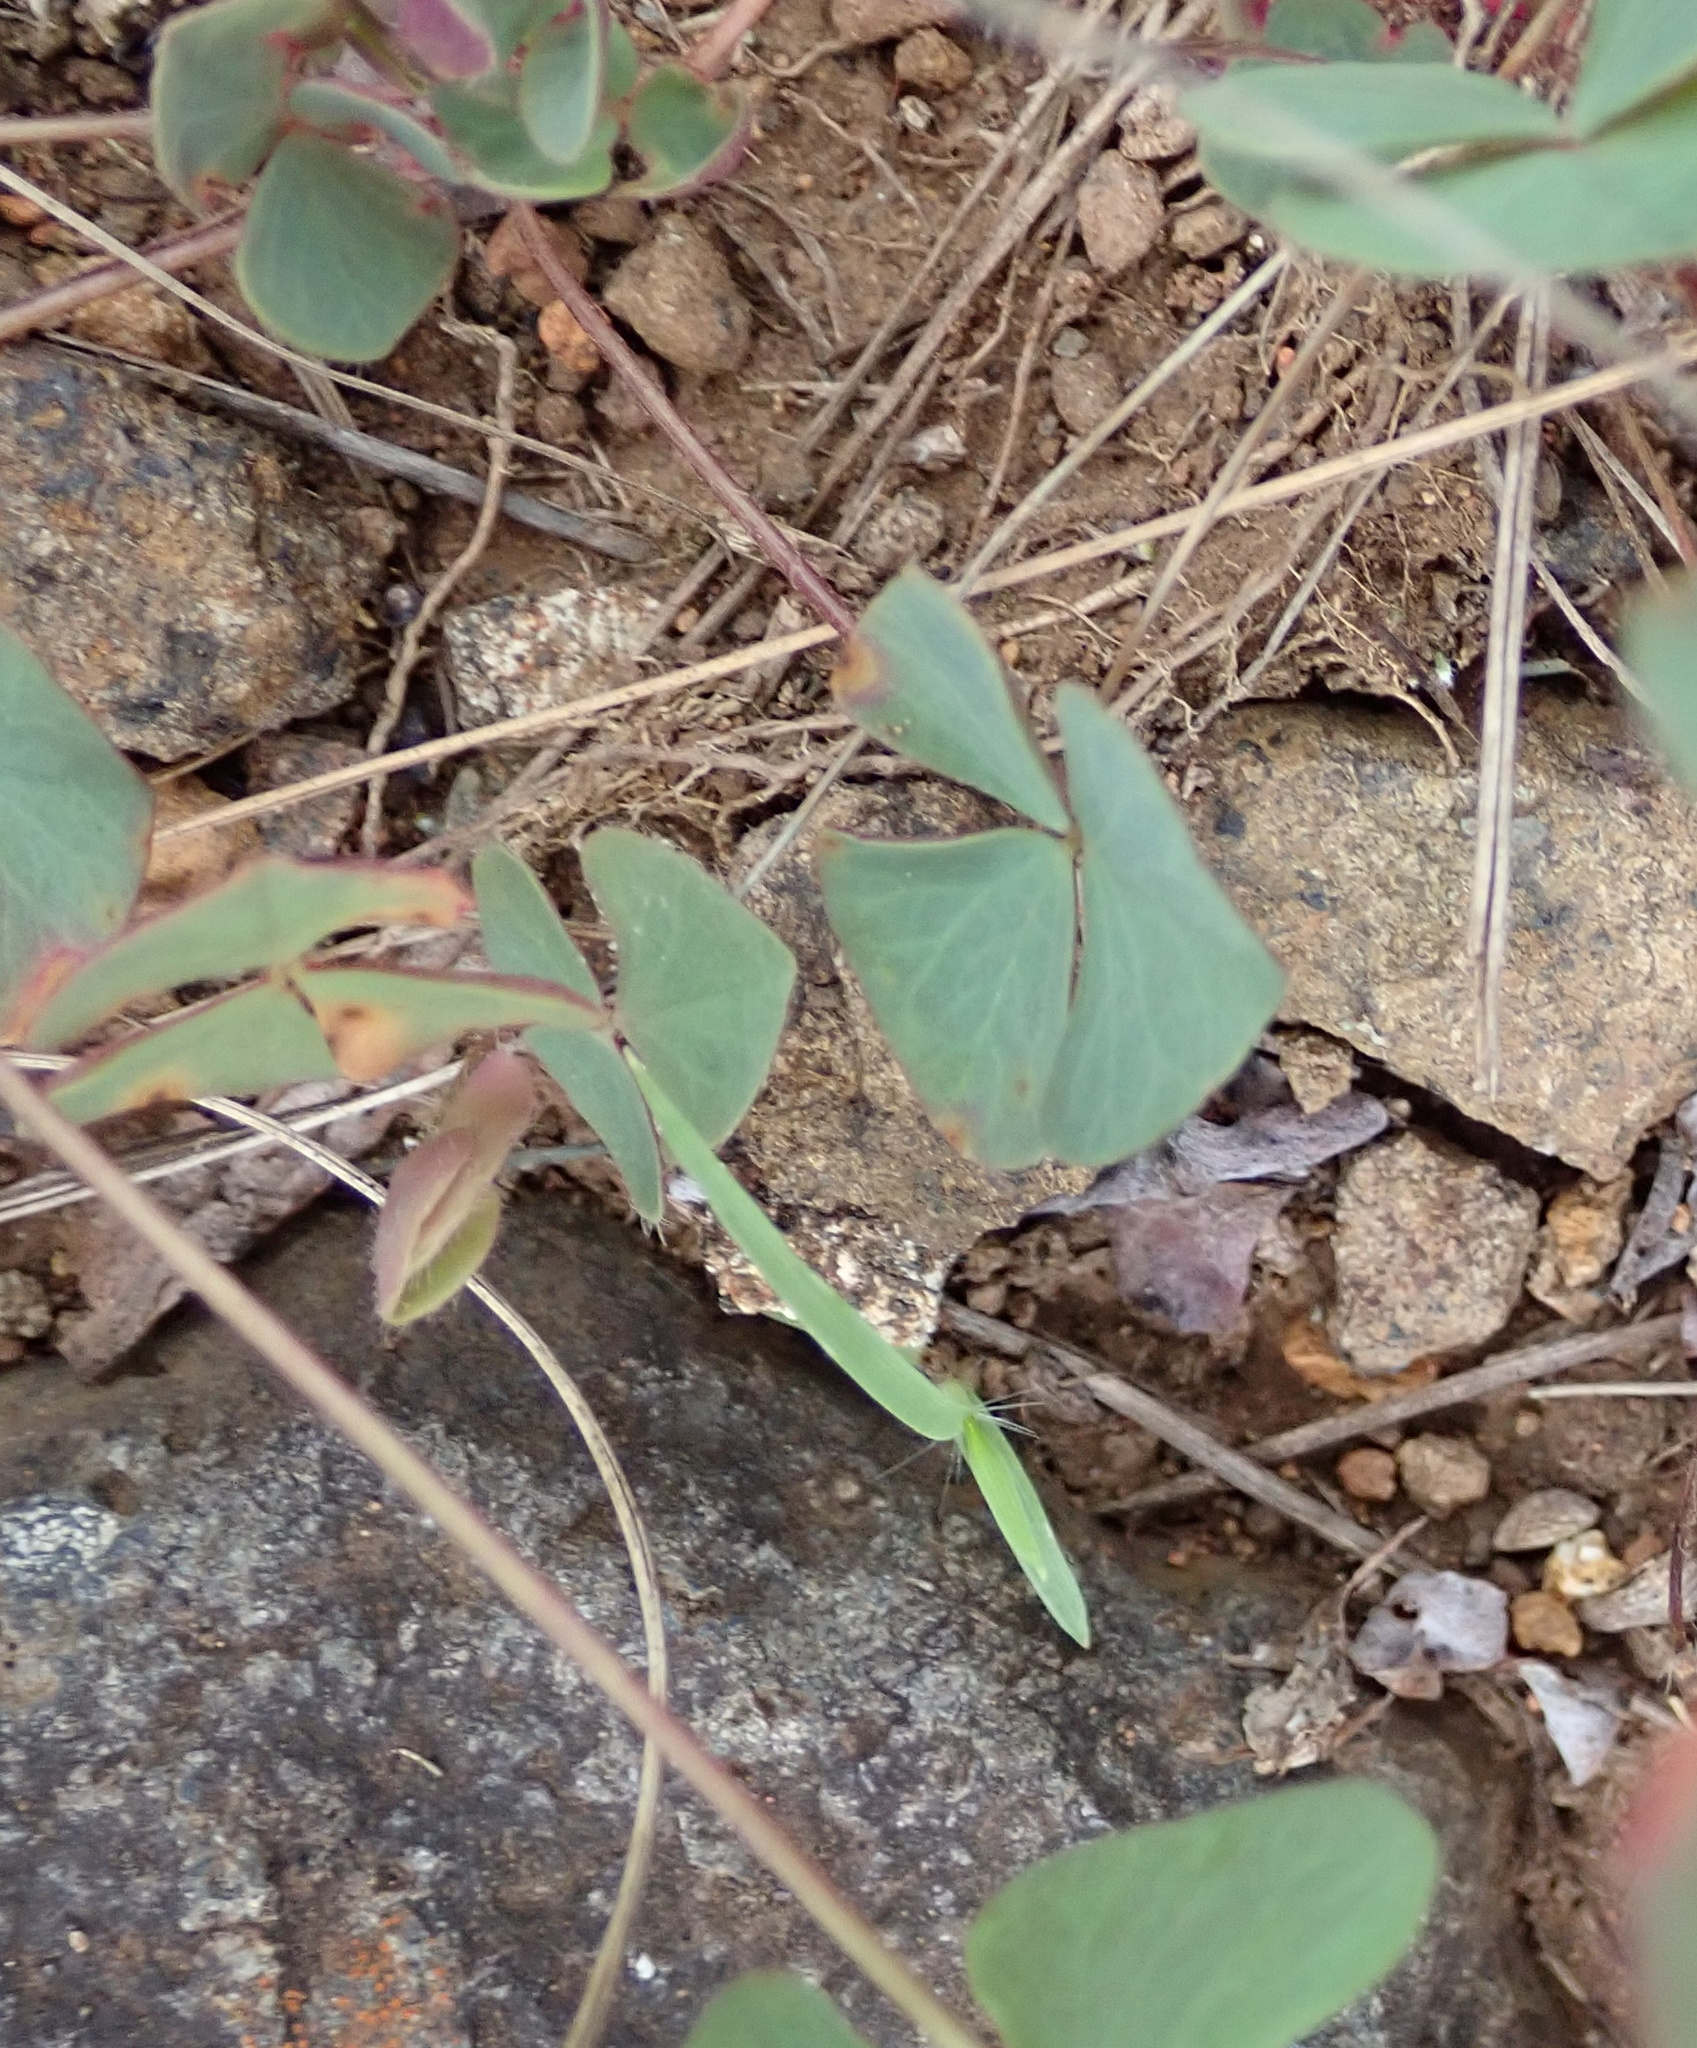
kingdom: Plantae
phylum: Tracheophyta
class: Magnoliopsida
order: Oxalidales
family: Oxalidaceae
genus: Oxalis
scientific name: Oxalis obliquifolia
